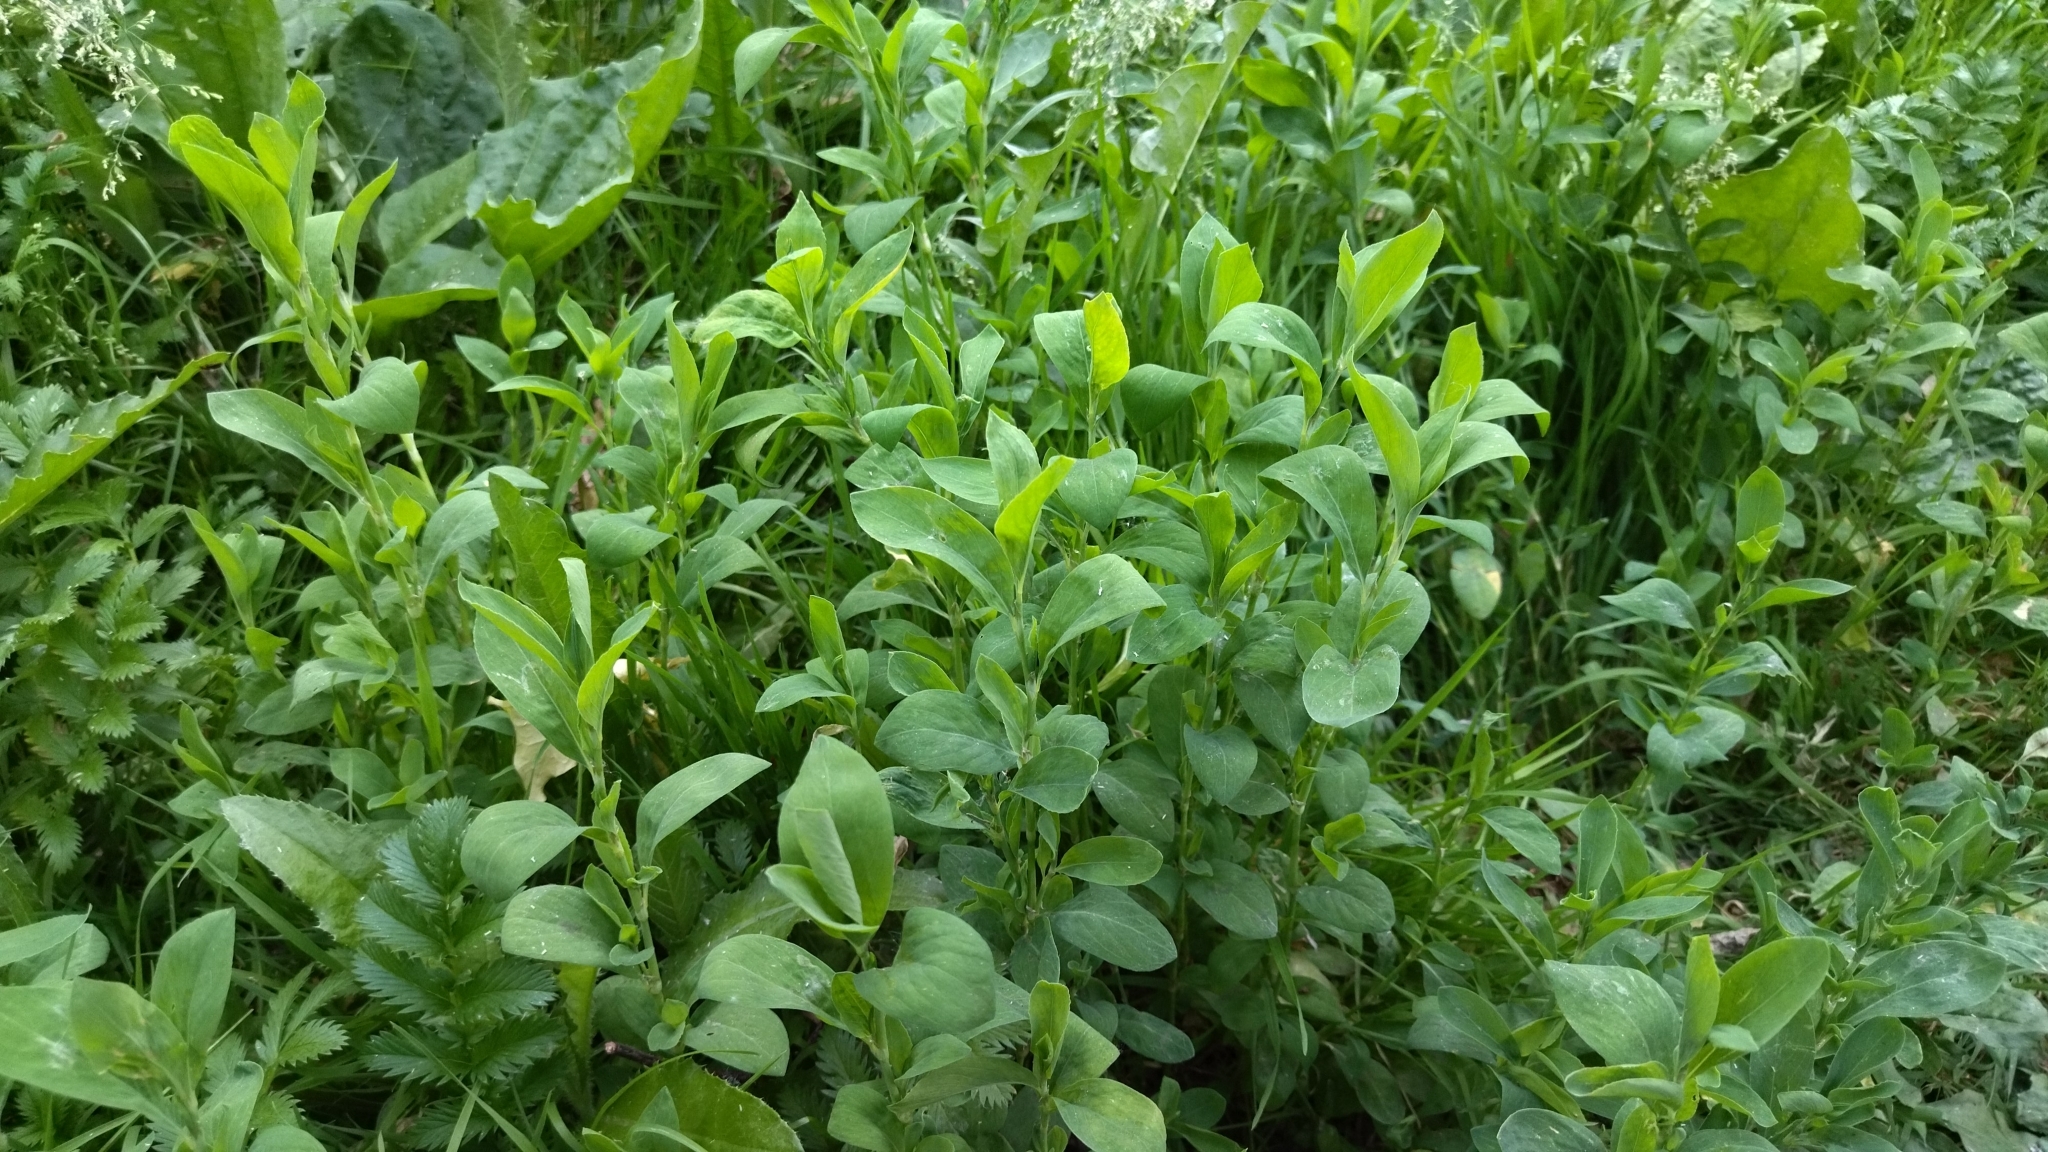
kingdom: Plantae
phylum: Tracheophyta
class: Magnoliopsida
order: Caryophyllales
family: Polygonaceae
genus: Polygonum
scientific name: Polygonum
